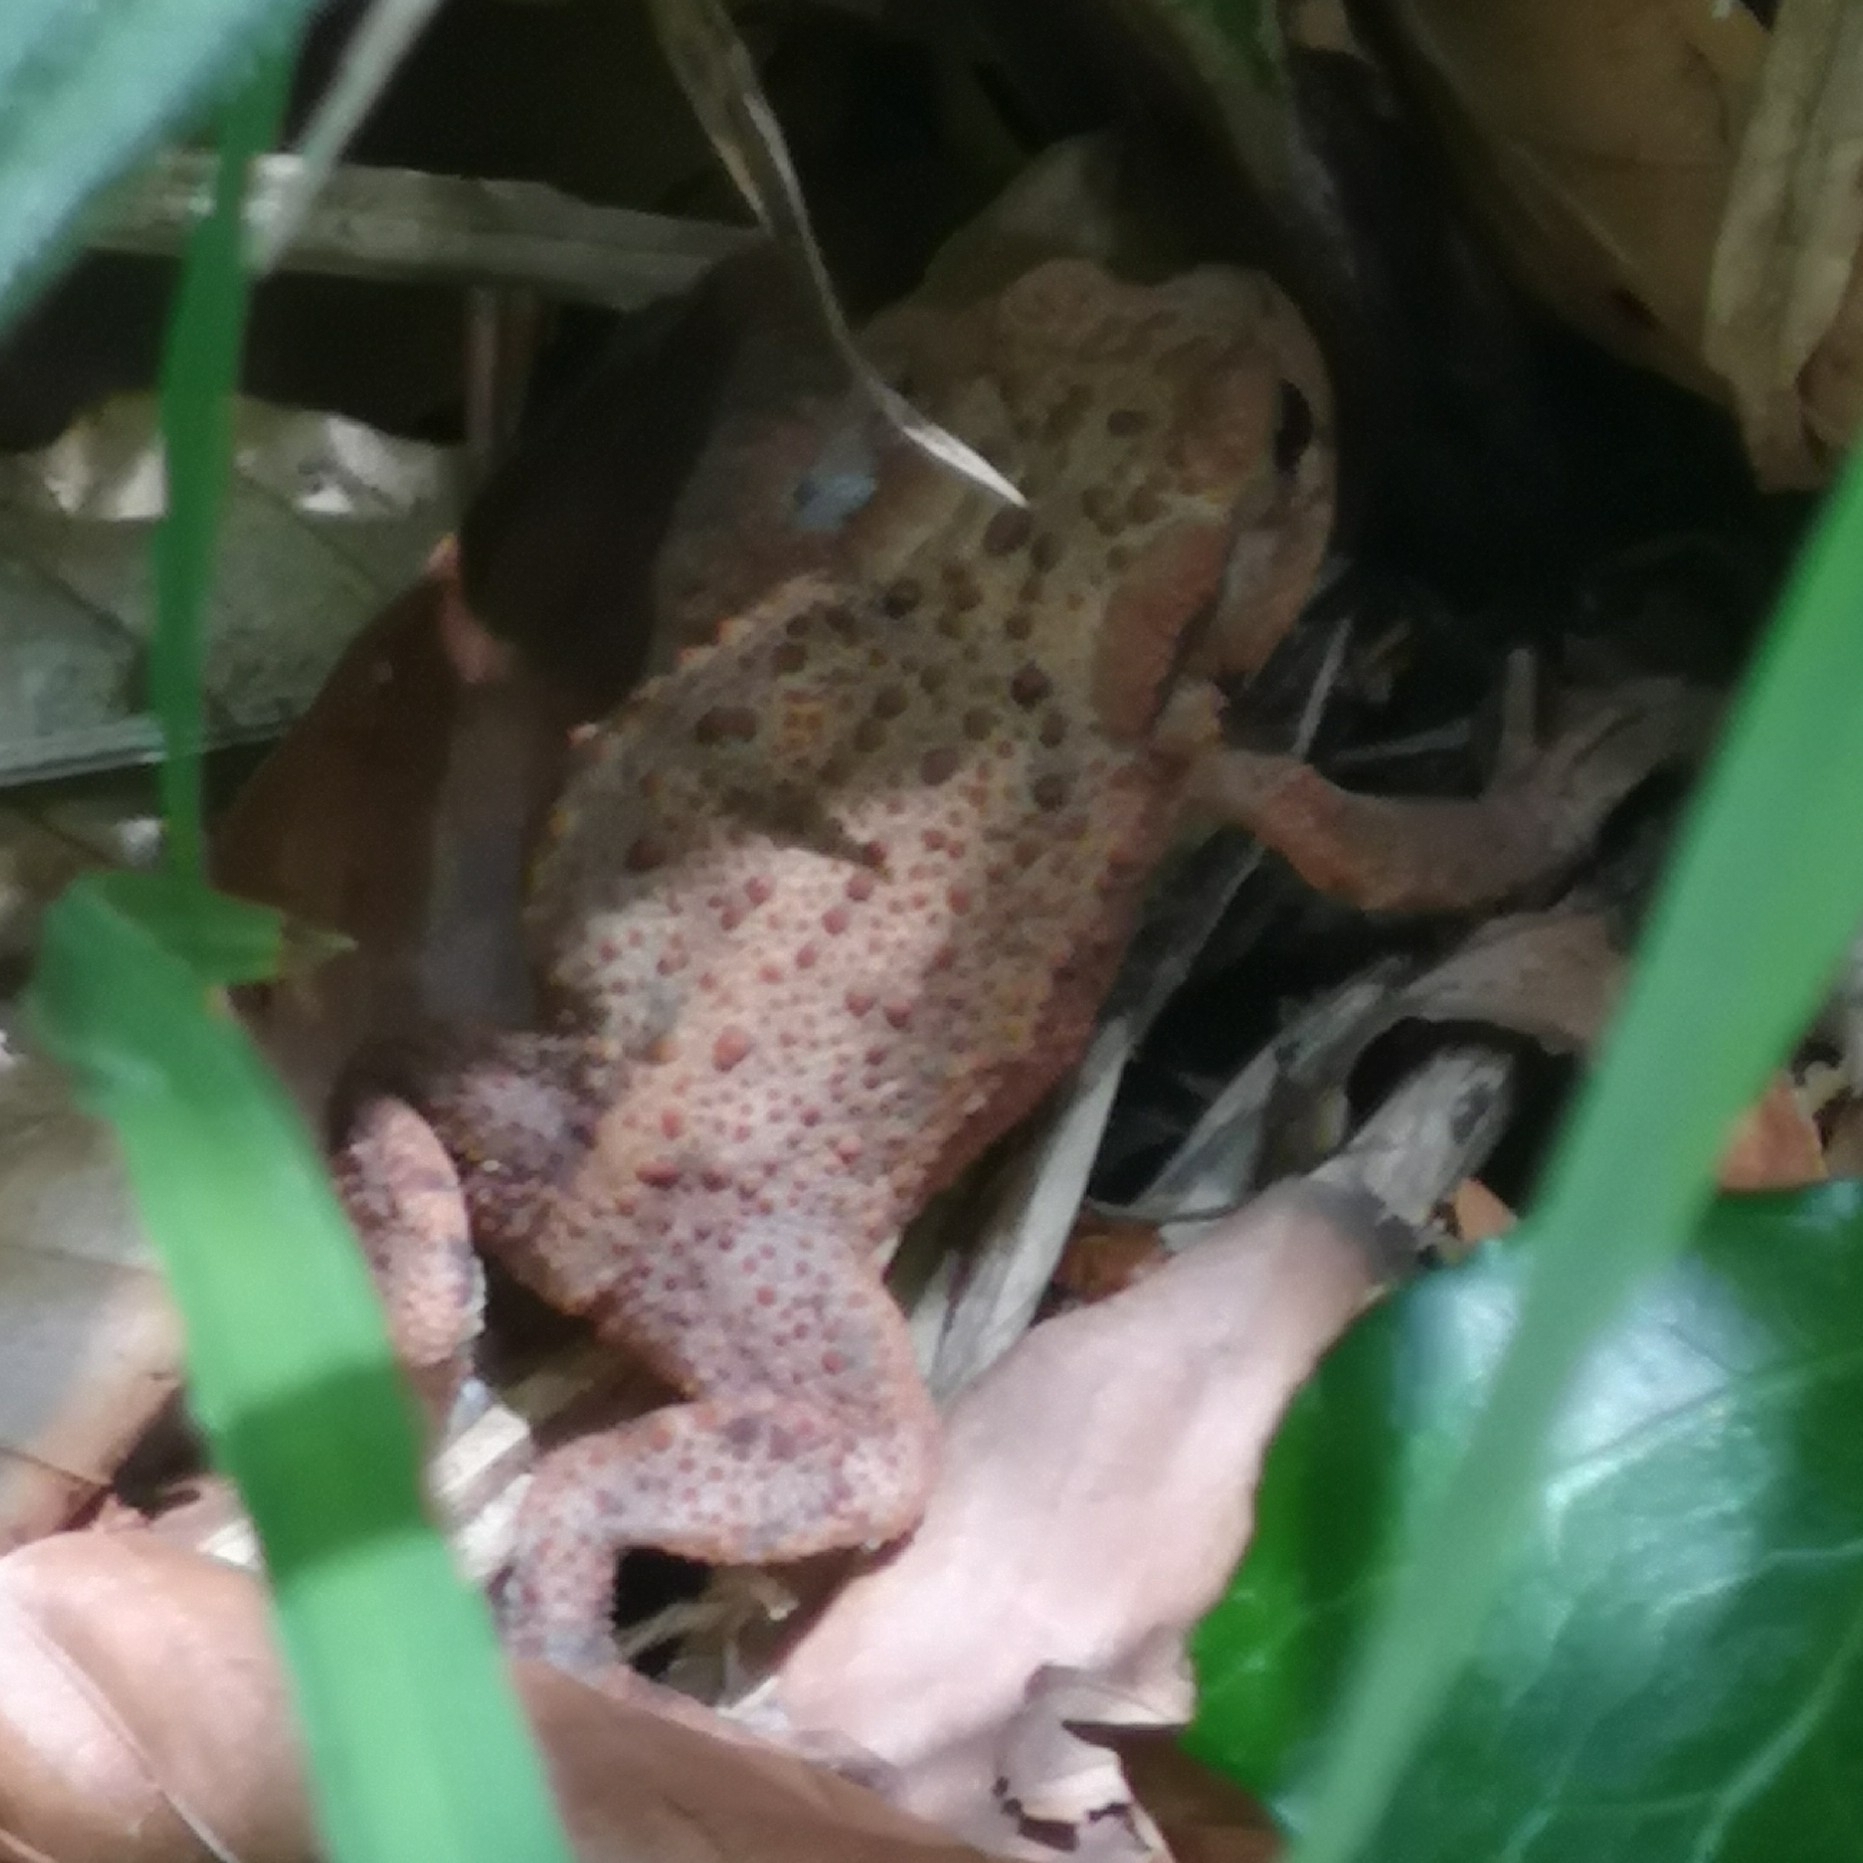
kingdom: Animalia
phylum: Chordata
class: Amphibia
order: Anura
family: Bufonidae
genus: Bufo
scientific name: Bufo bufo
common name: Common toad
